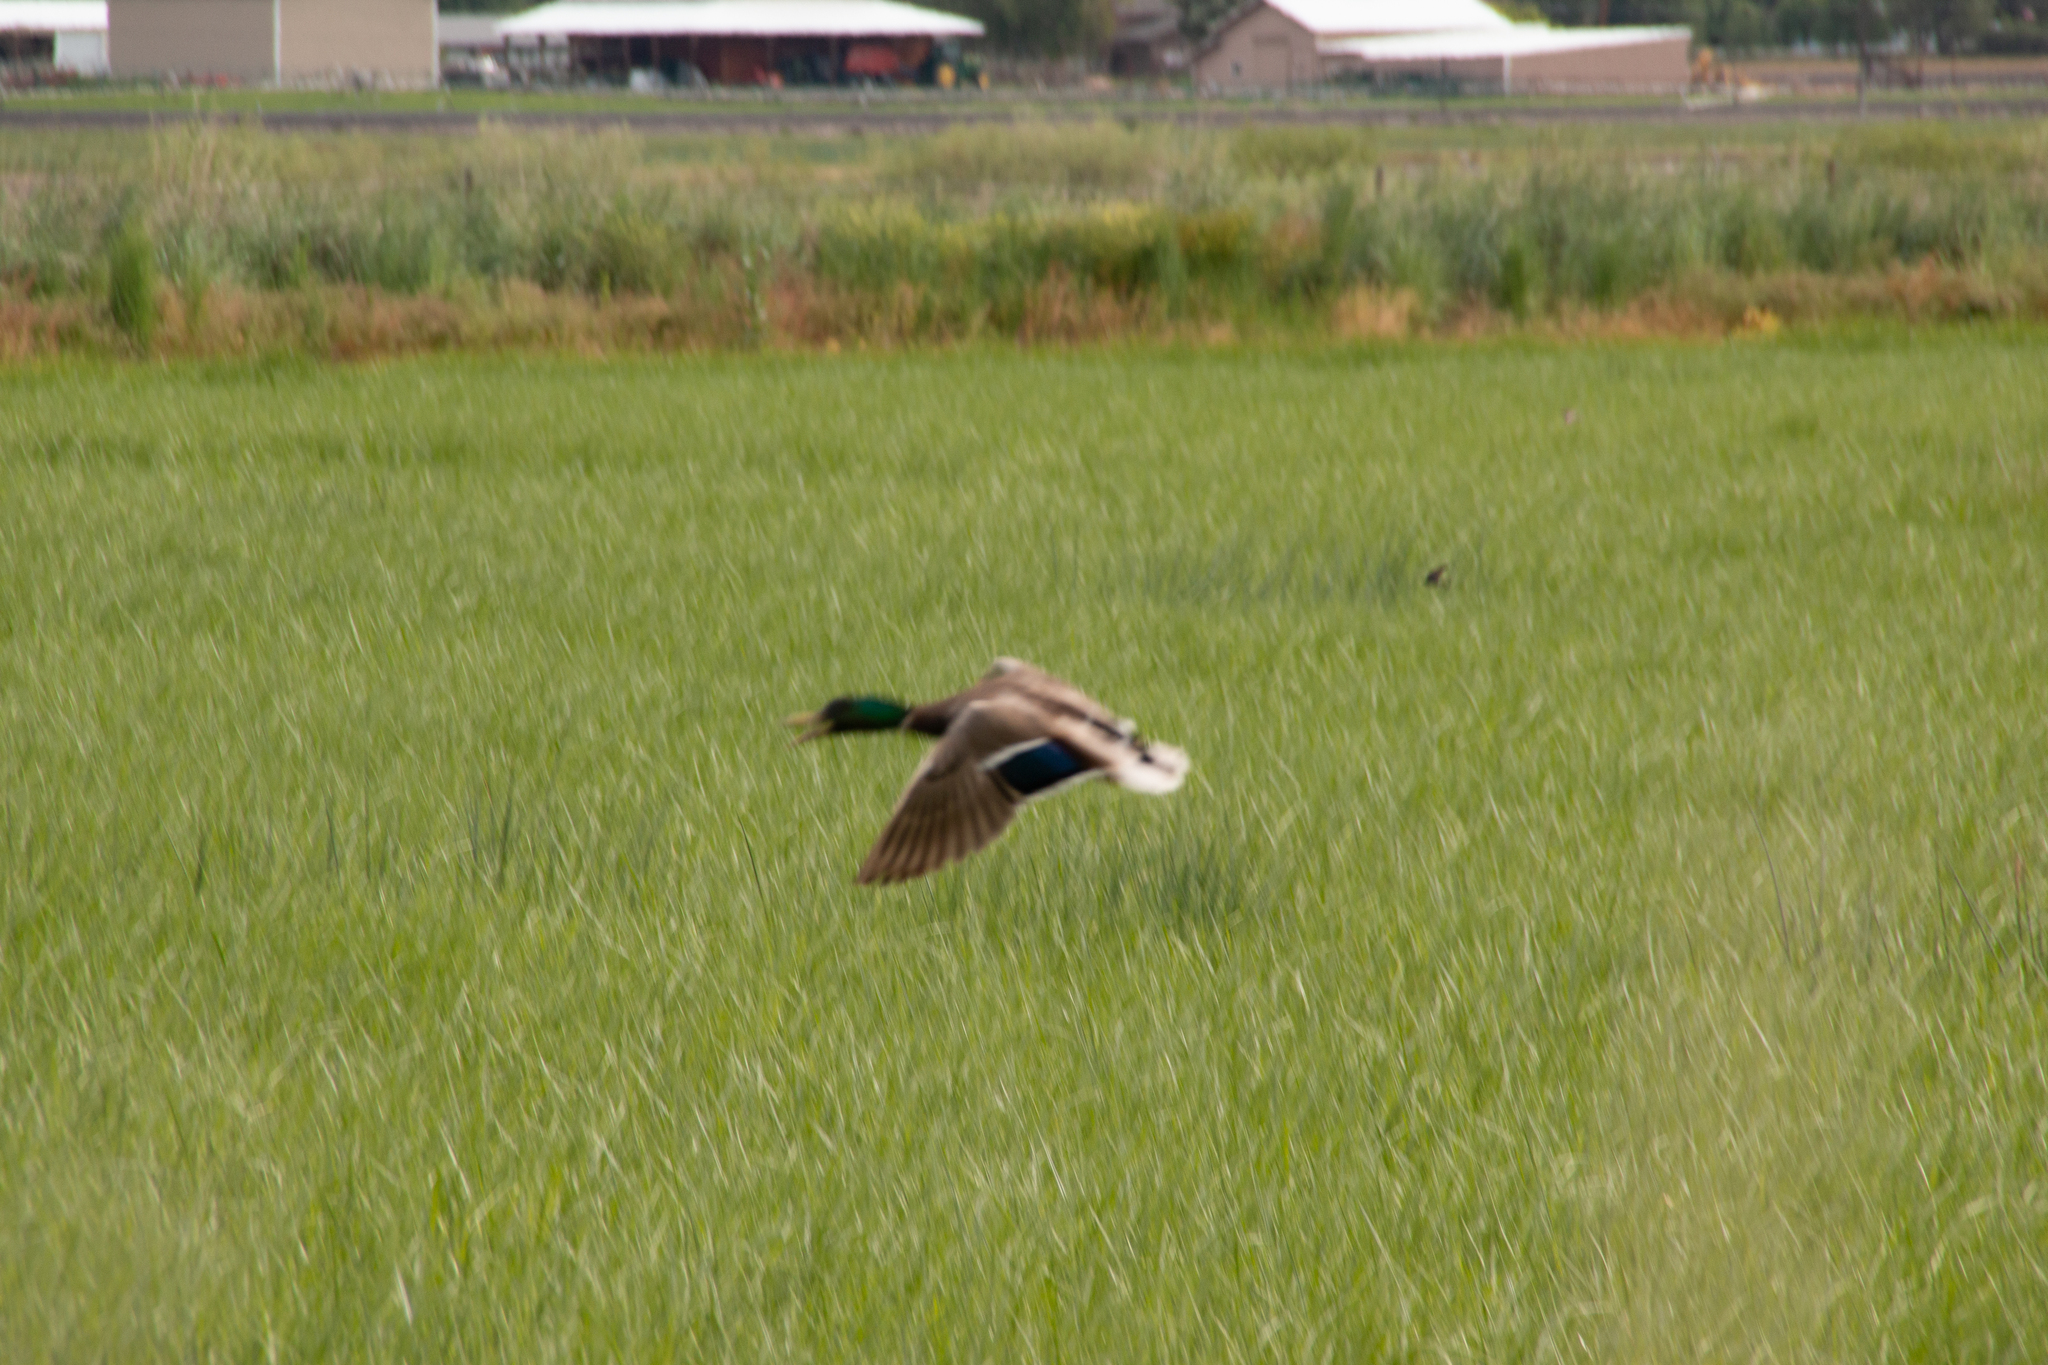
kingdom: Animalia
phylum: Chordata
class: Aves
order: Anseriformes
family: Anatidae
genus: Anas
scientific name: Anas platyrhynchos
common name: Mallard
